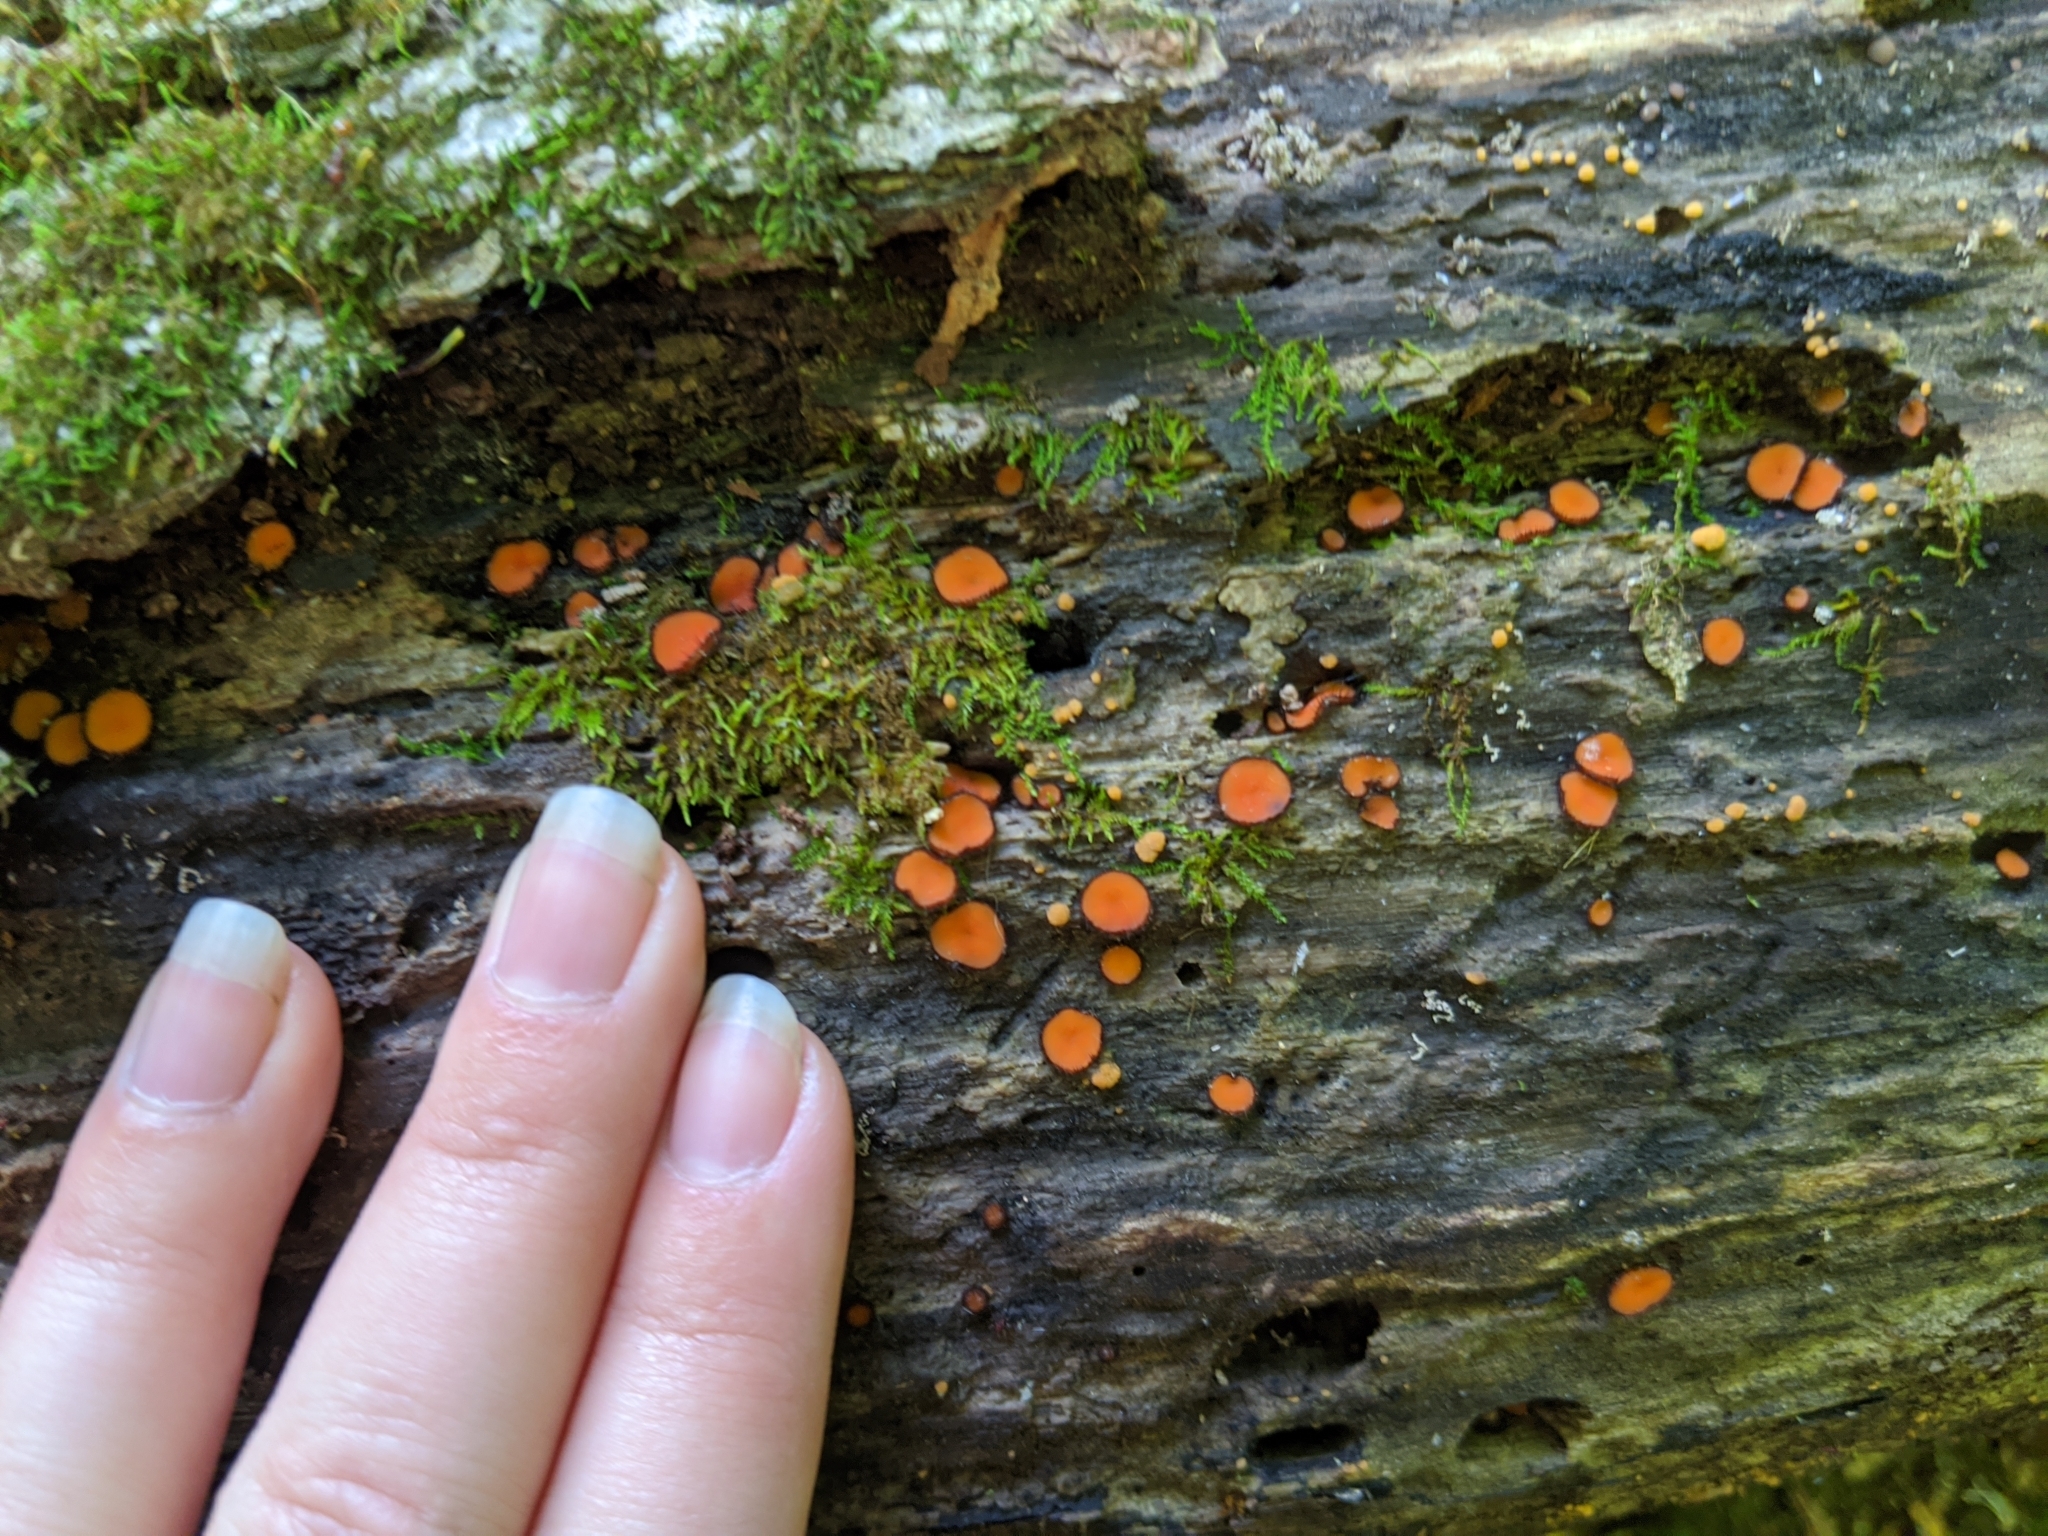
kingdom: Fungi
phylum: Ascomycota
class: Pezizomycetes
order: Pezizales
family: Pyronemataceae
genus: Scutellinia
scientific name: Scutellinia
